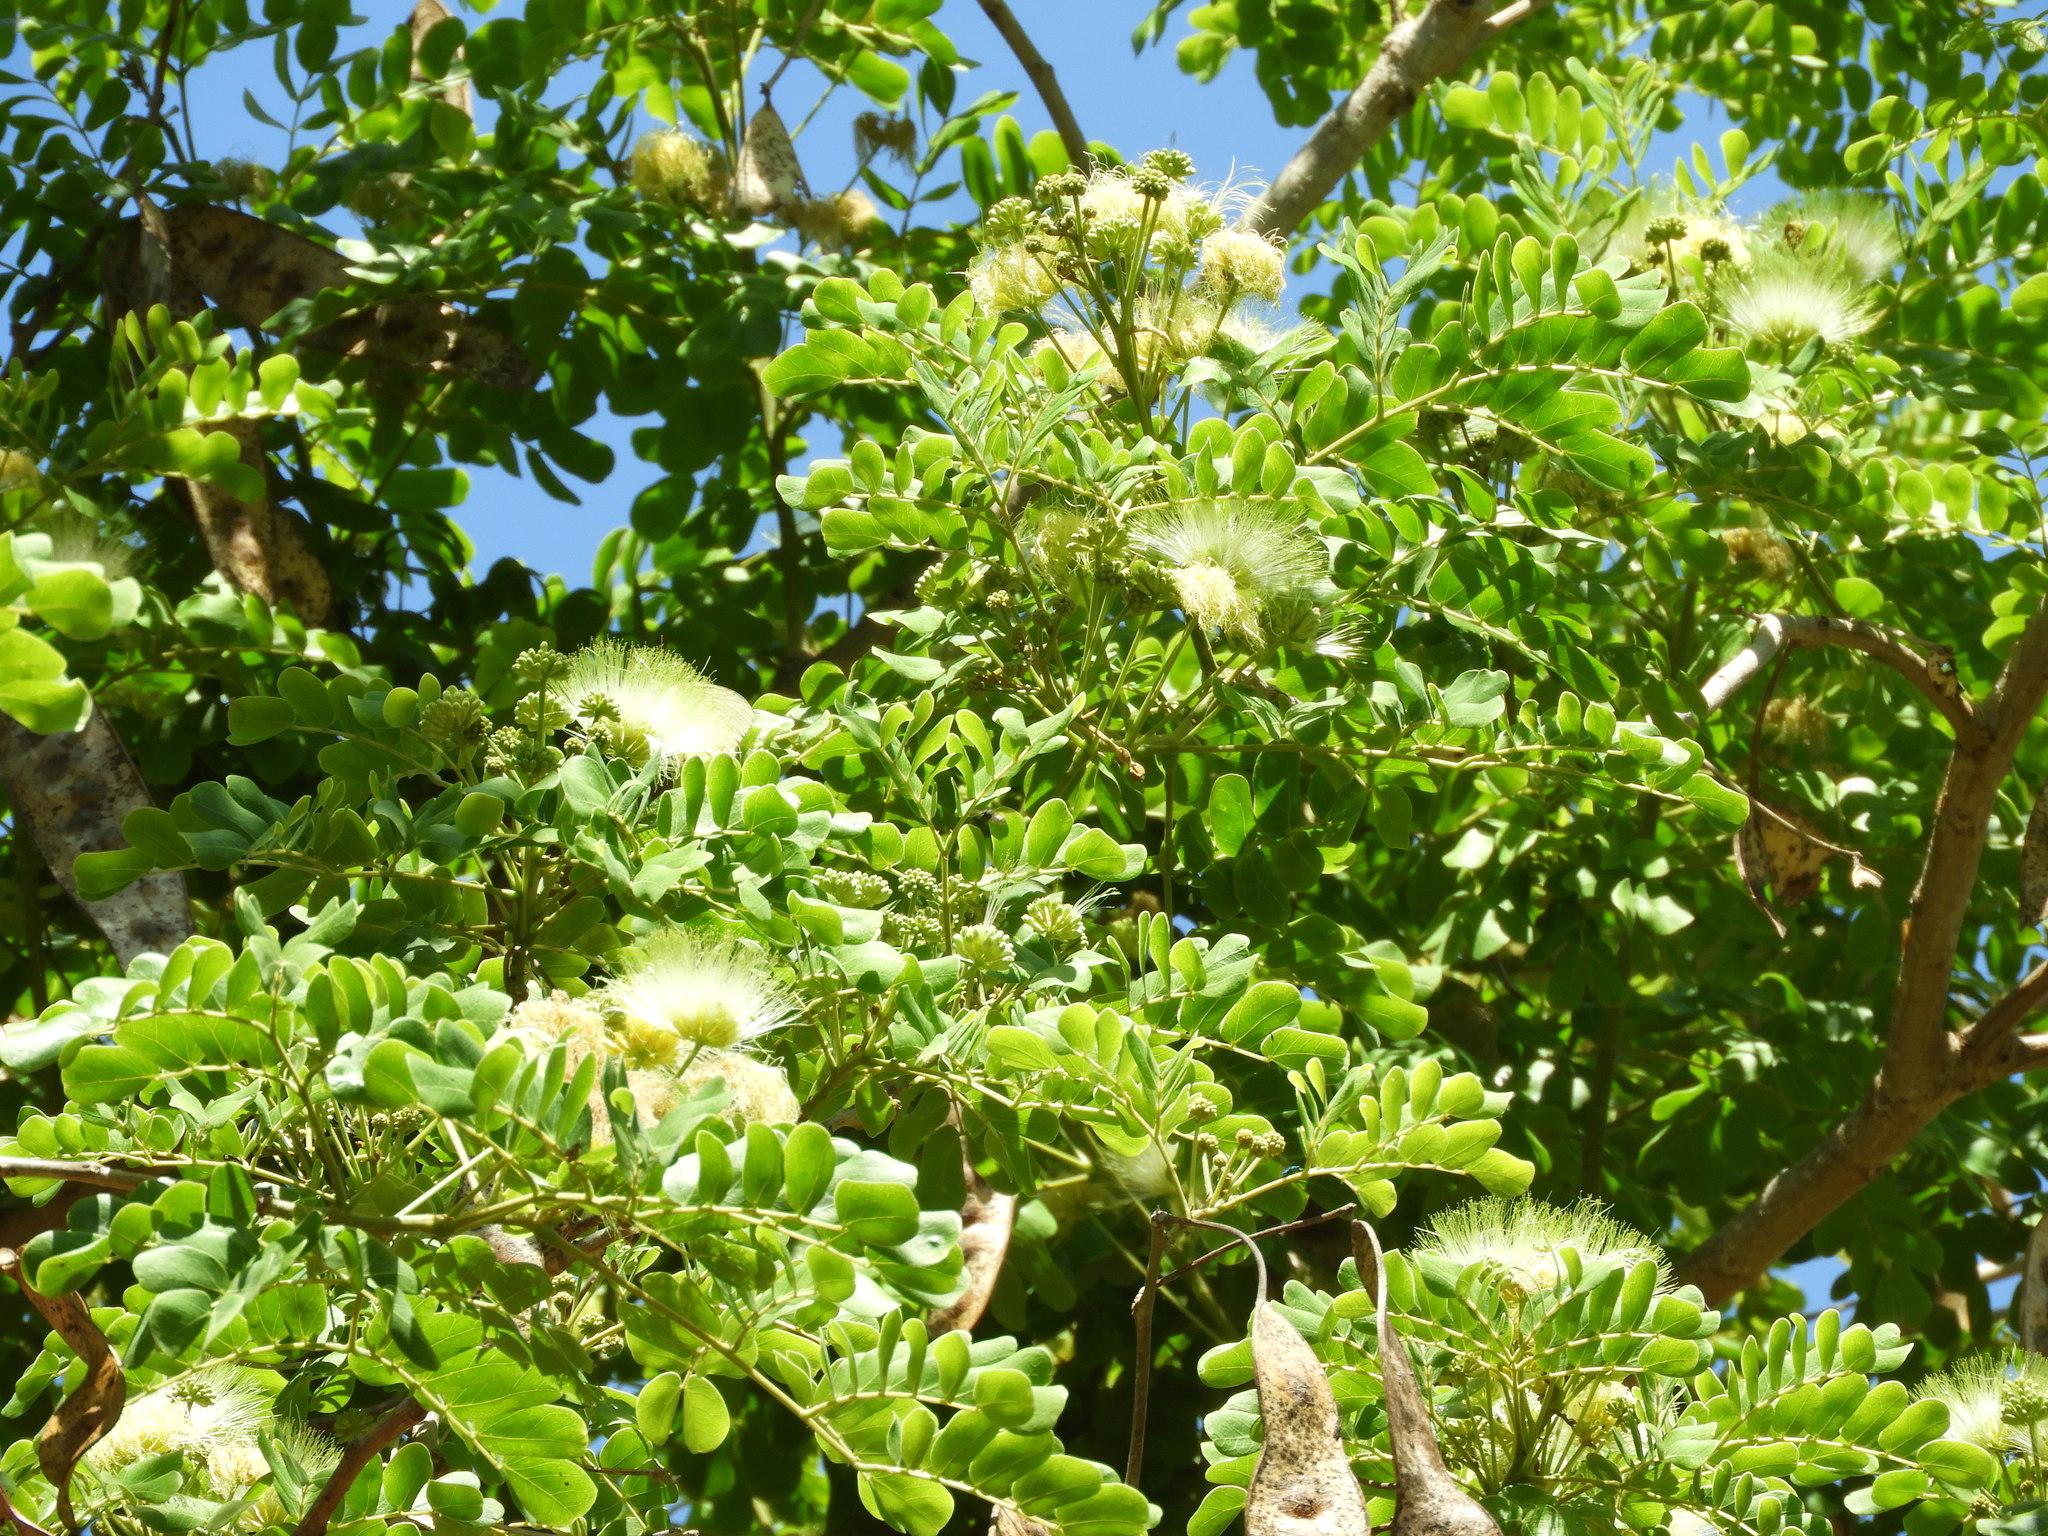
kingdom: Plantae
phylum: Tracheophyta
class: Magnoliopsida
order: Fabales
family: Fabaceae
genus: Albizia
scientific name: Albizia lebbeck
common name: Woman's tongue
